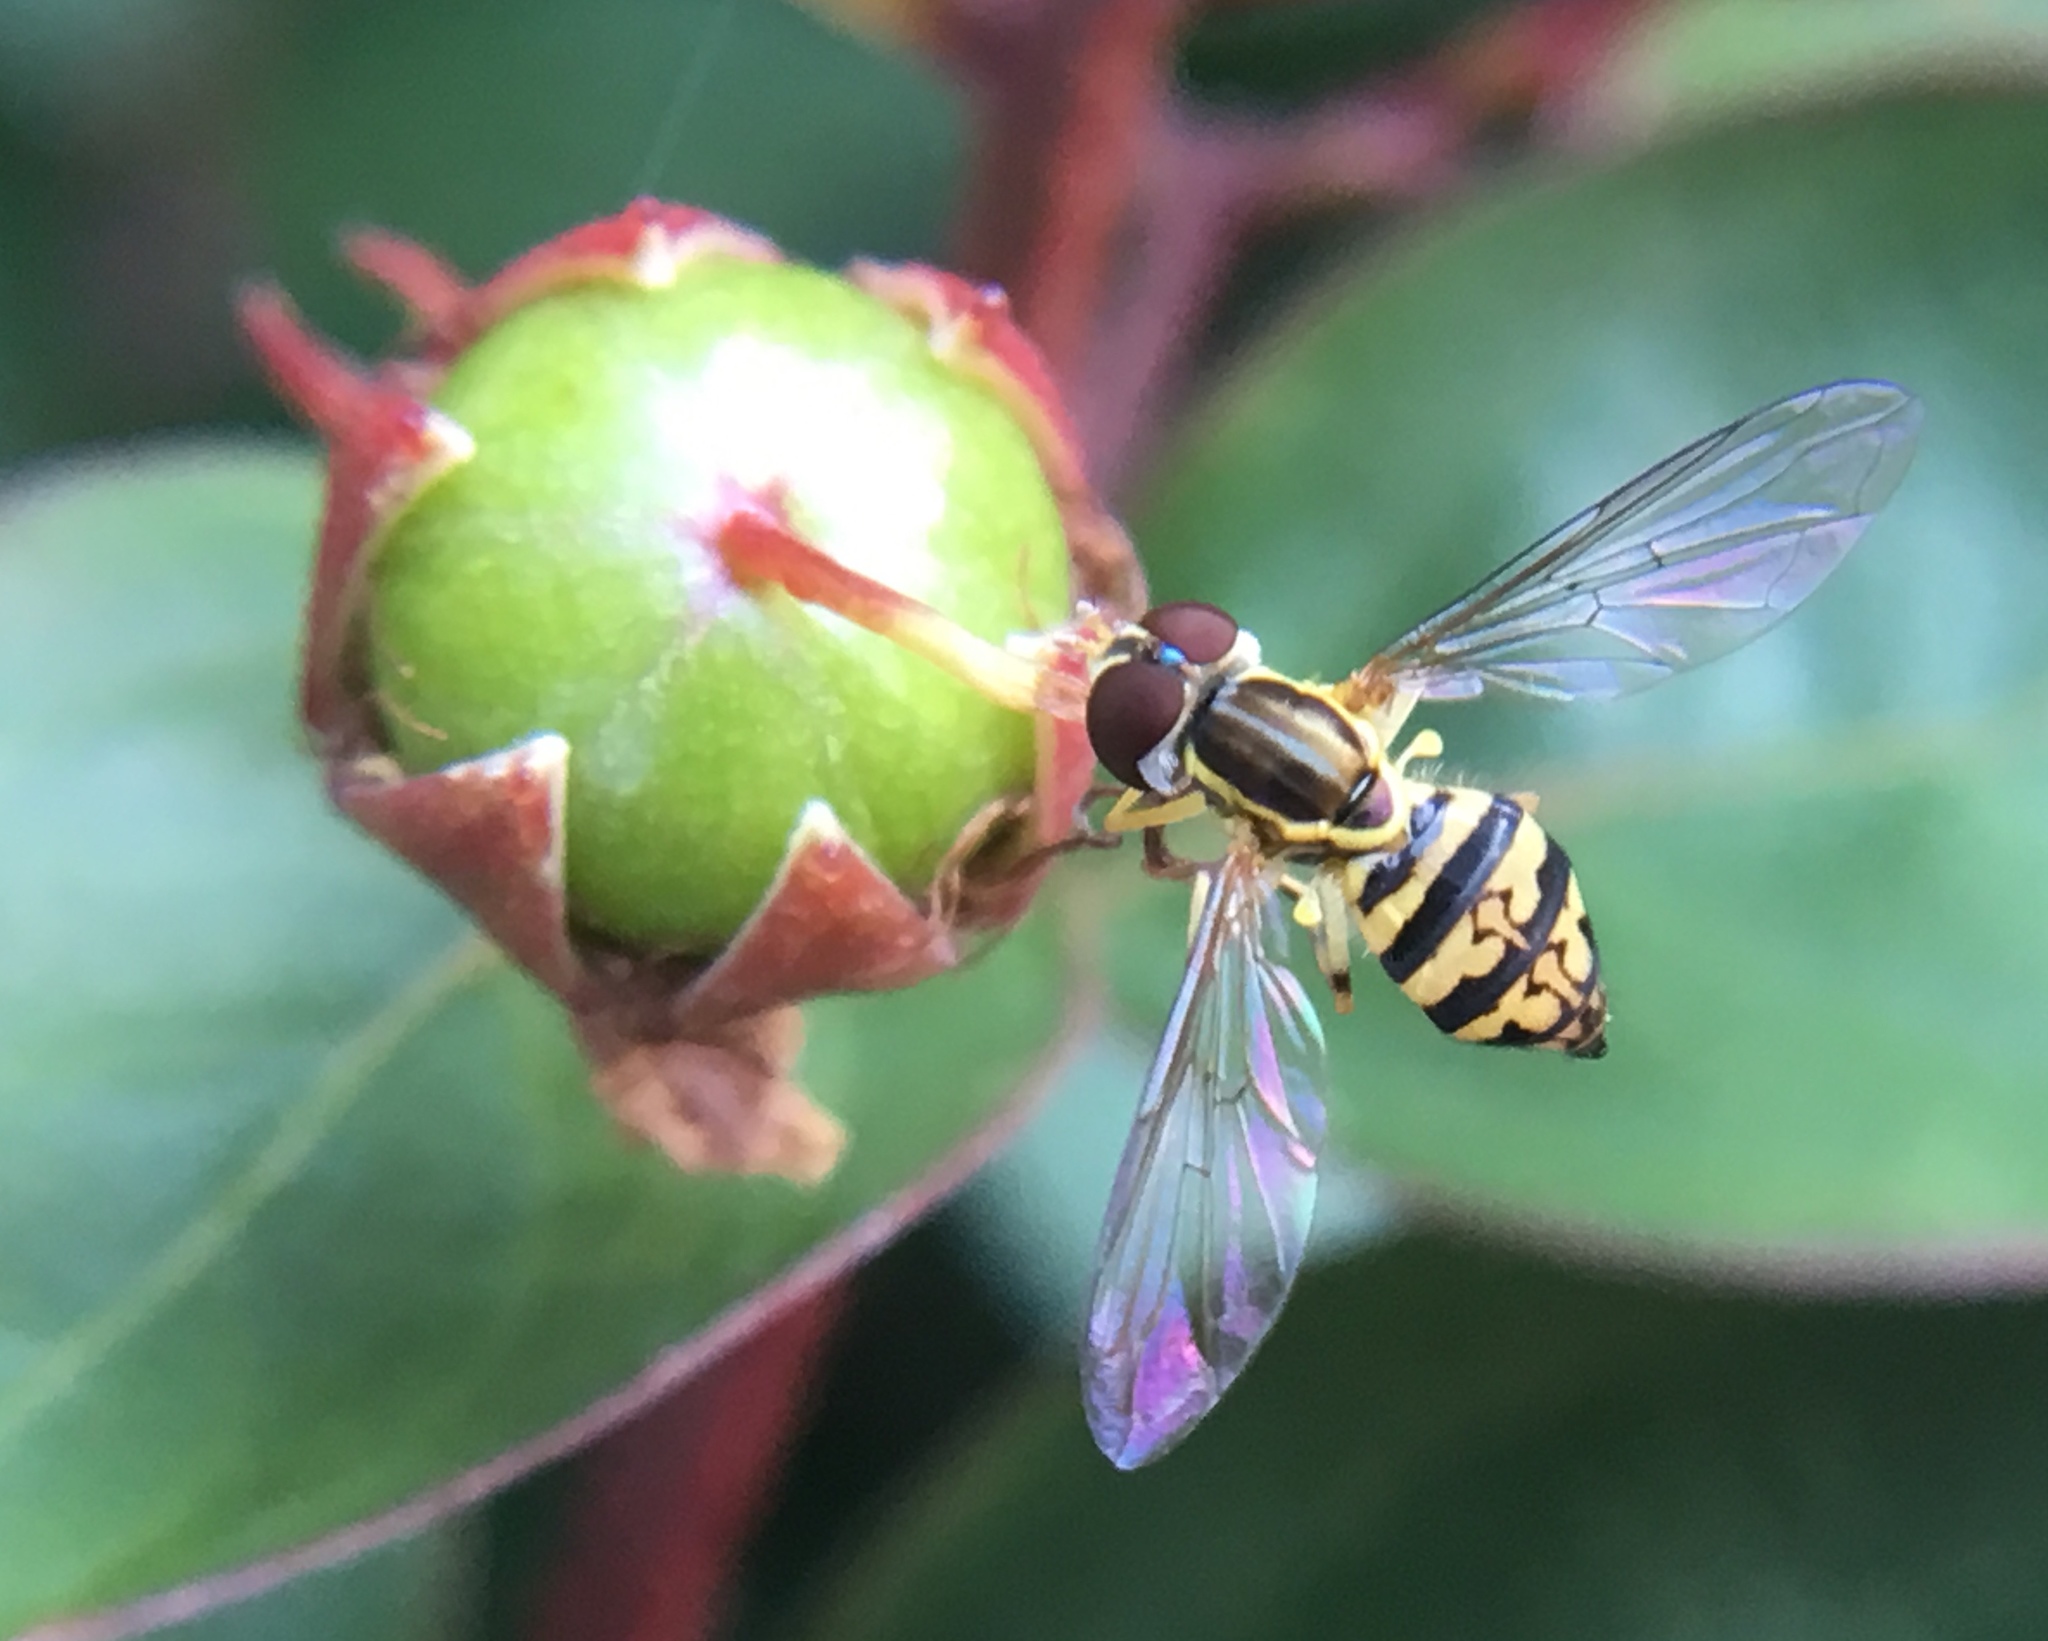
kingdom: Animalia
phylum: Arthropoda
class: Insecta
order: Diptera
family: Syrphidae
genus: Toxomerus
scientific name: Toxomerus geminatus
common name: Eastern calligrapher
